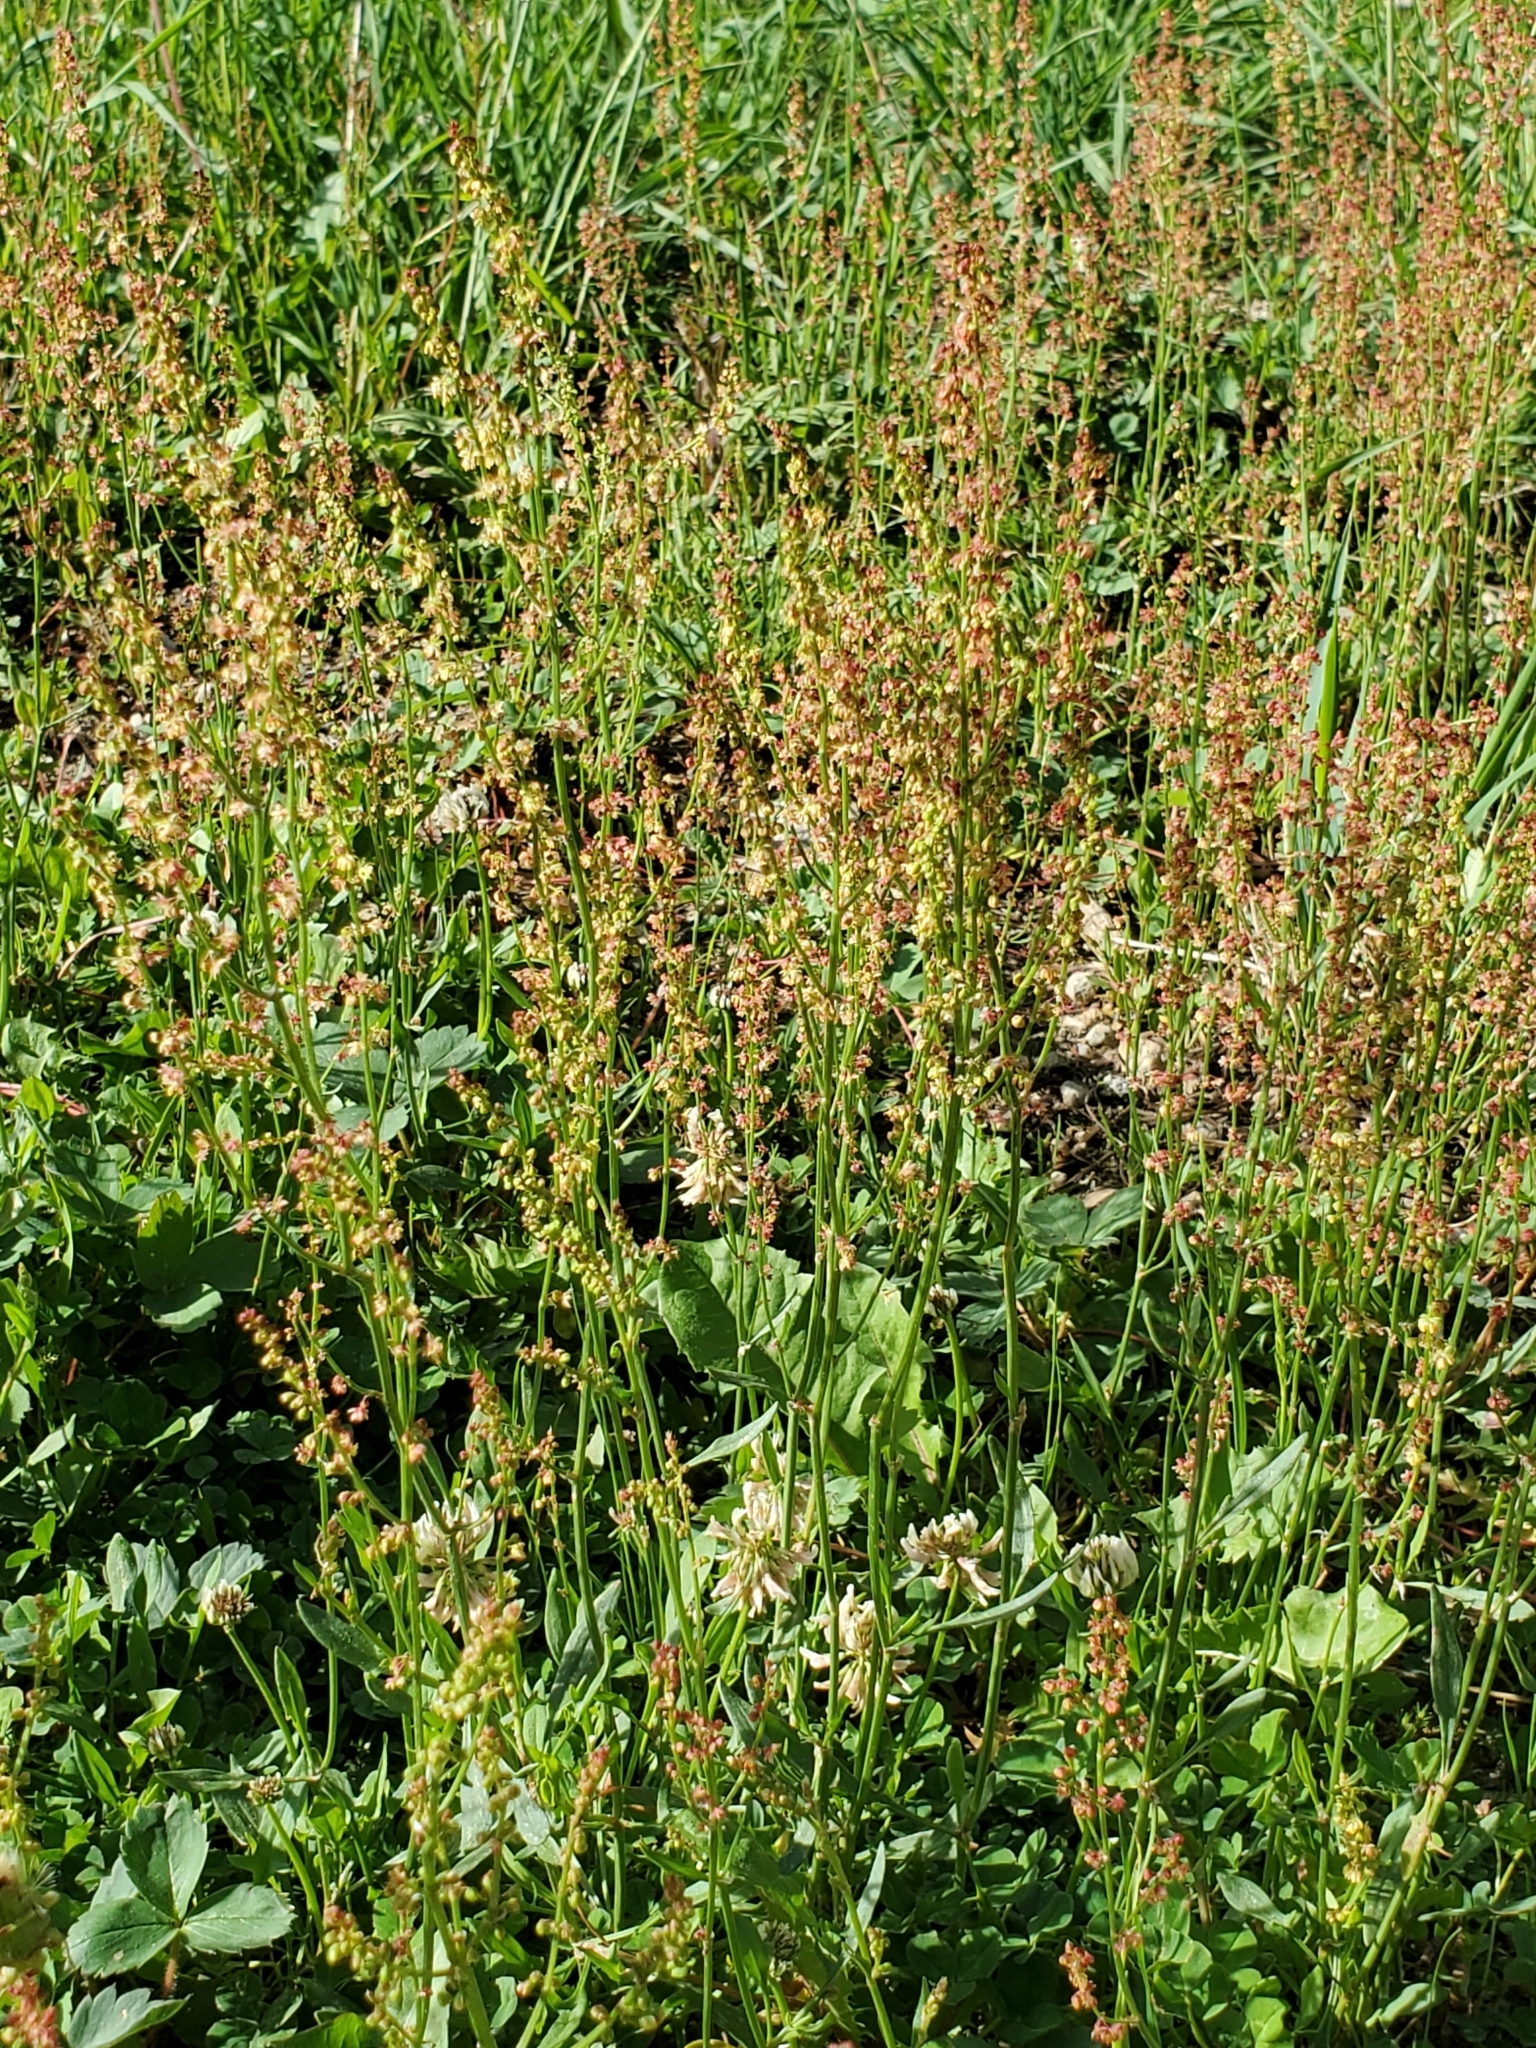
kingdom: Plantae
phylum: Tracheophyta
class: Magnoliopsida
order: Caryophyllales
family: Polygonaceae
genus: Rumex
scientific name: Rumex acetosella
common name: Common sheep sorrel
